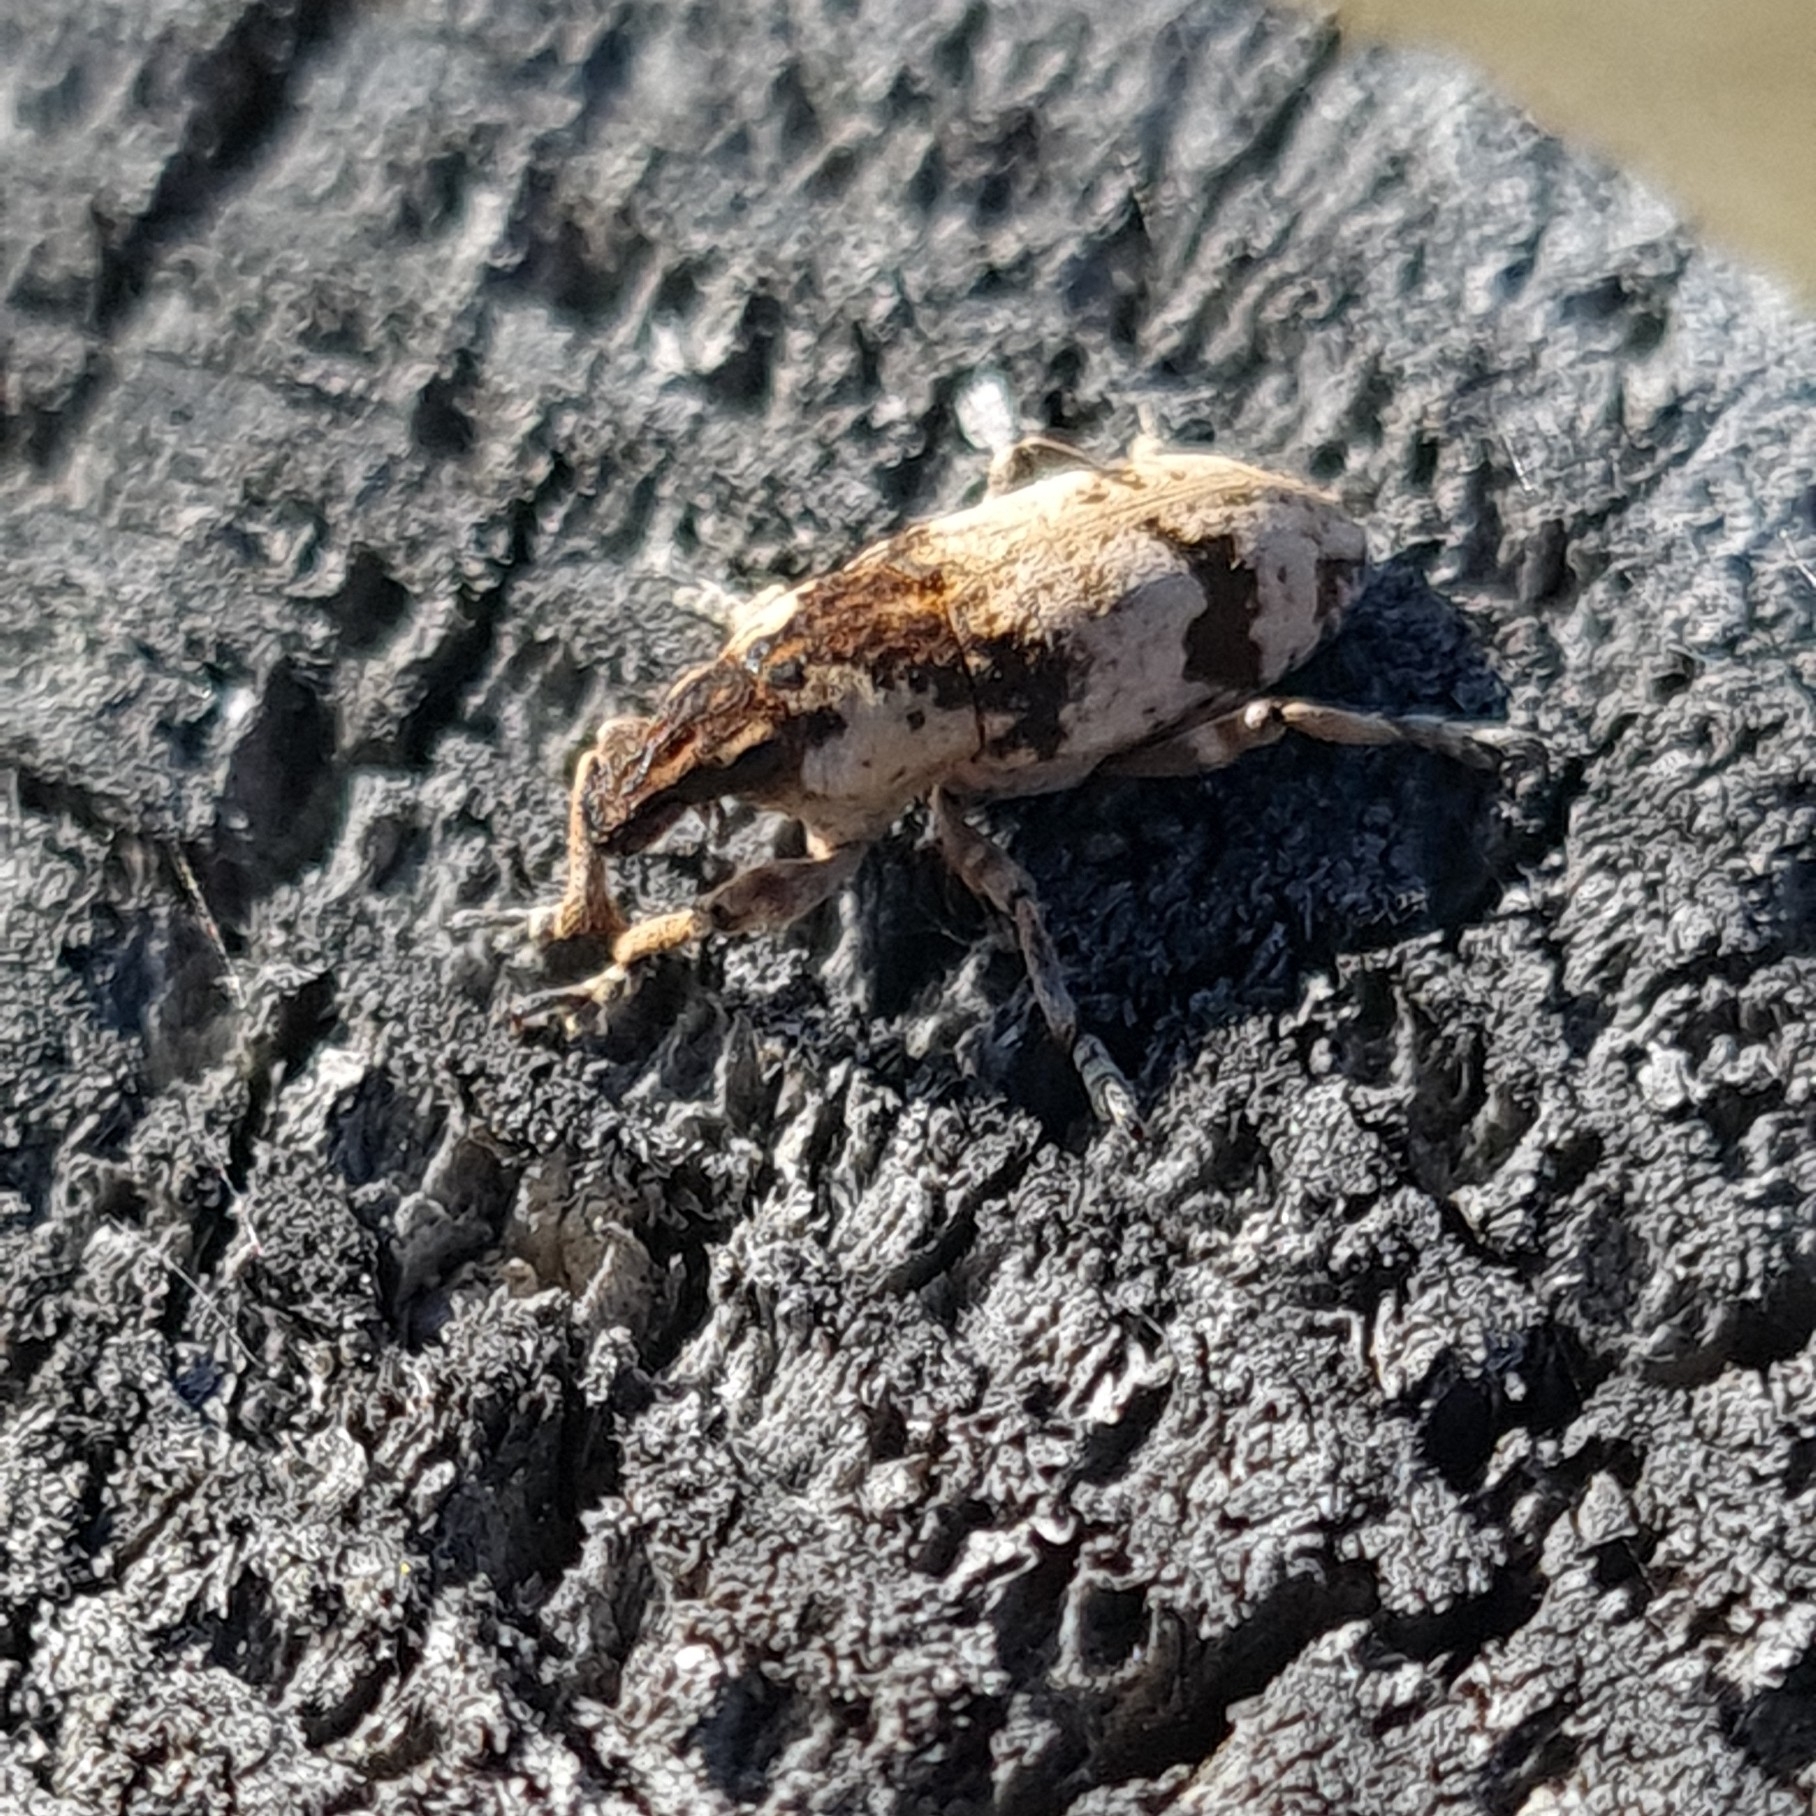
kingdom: Animalia
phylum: Arthropoda
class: Insecta
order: Coleoptera
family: Curculionidae
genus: Bothynoderes
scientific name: Bothynoderes affinis
